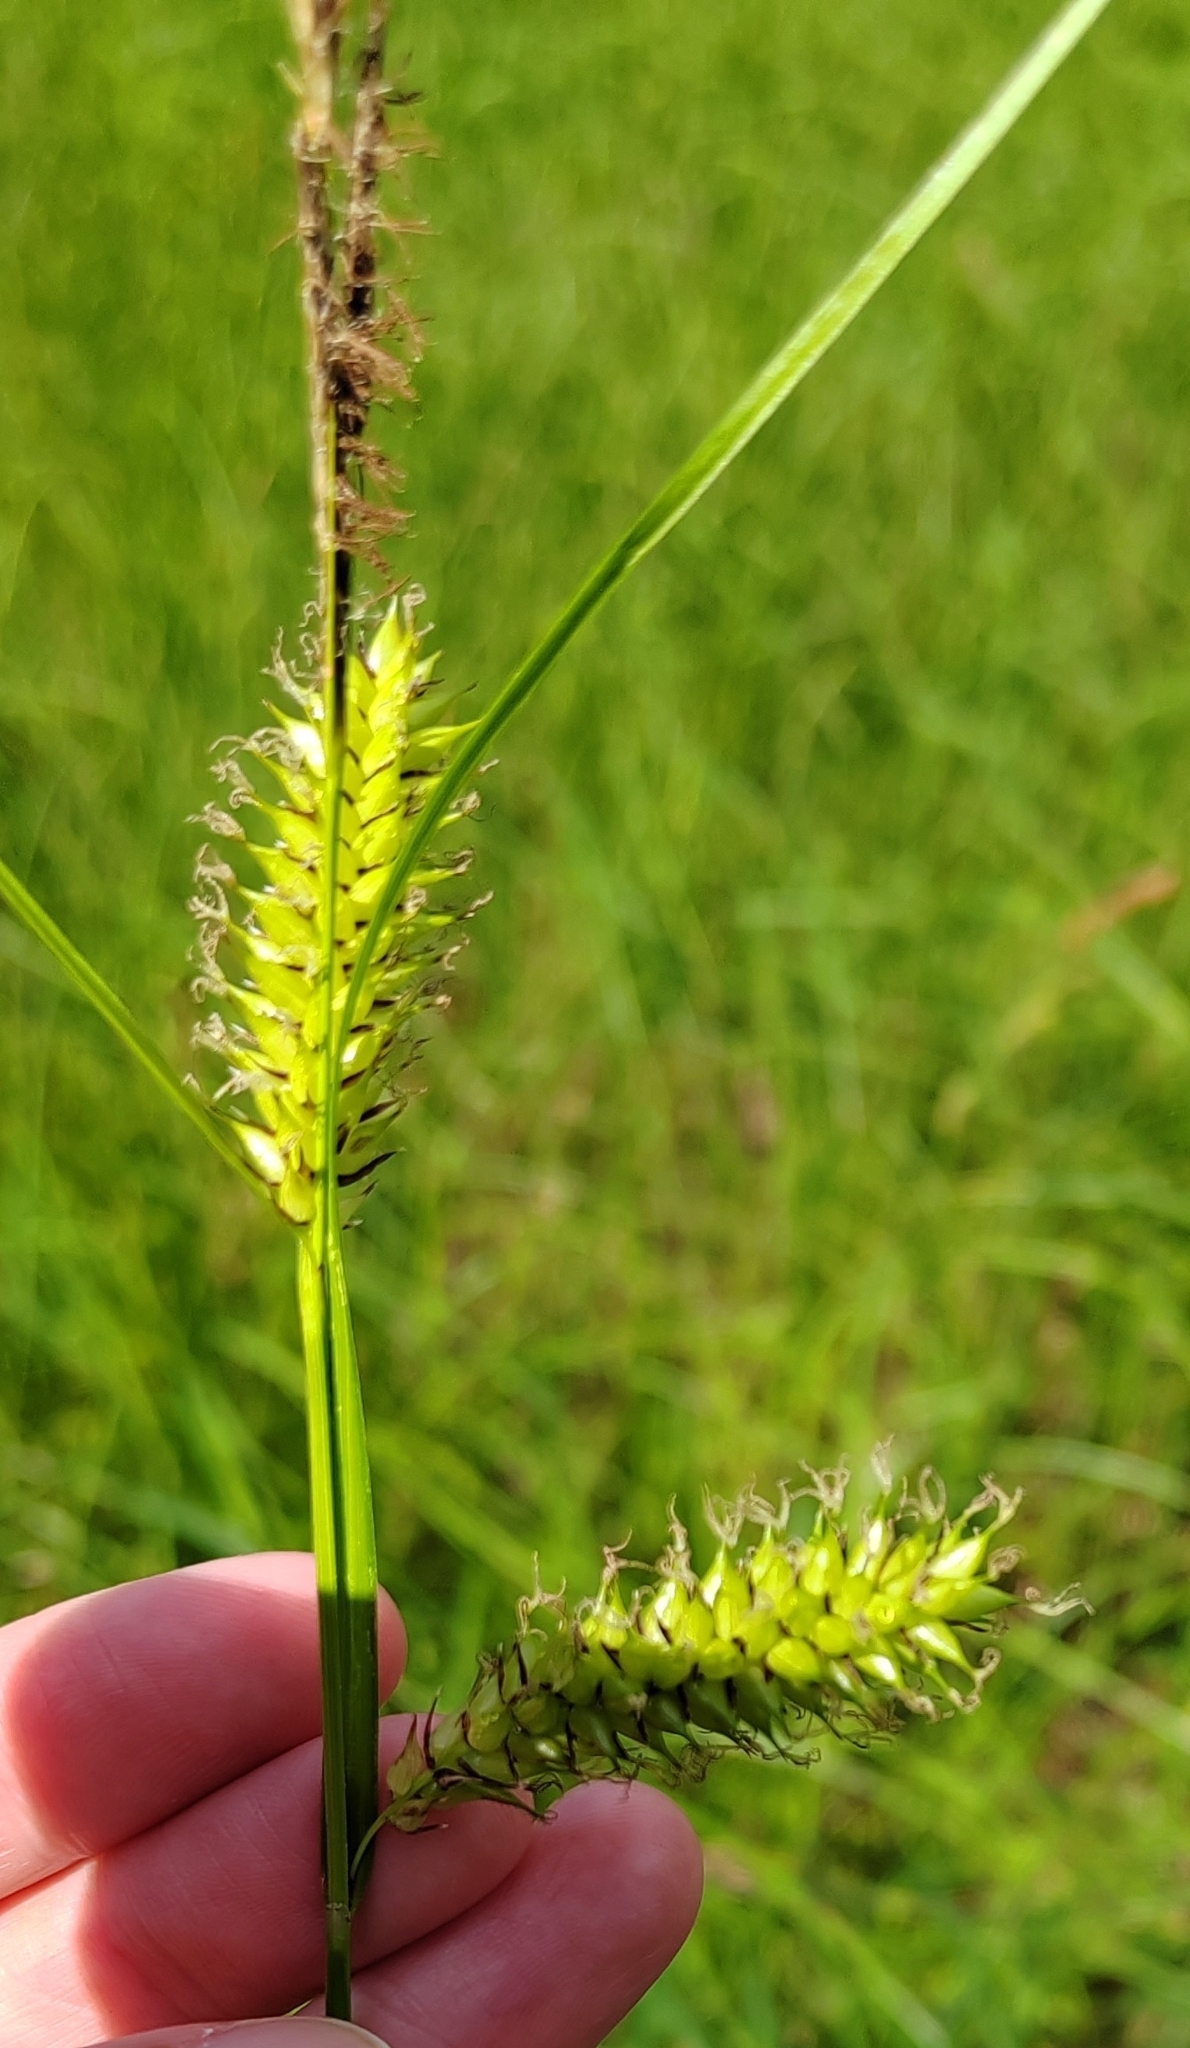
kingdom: Plantae
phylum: Tracheophyta
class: Liliopsida
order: Poales
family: Cyperaceae
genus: Carex
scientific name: Carex vesicaria
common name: Bladder-sedge
